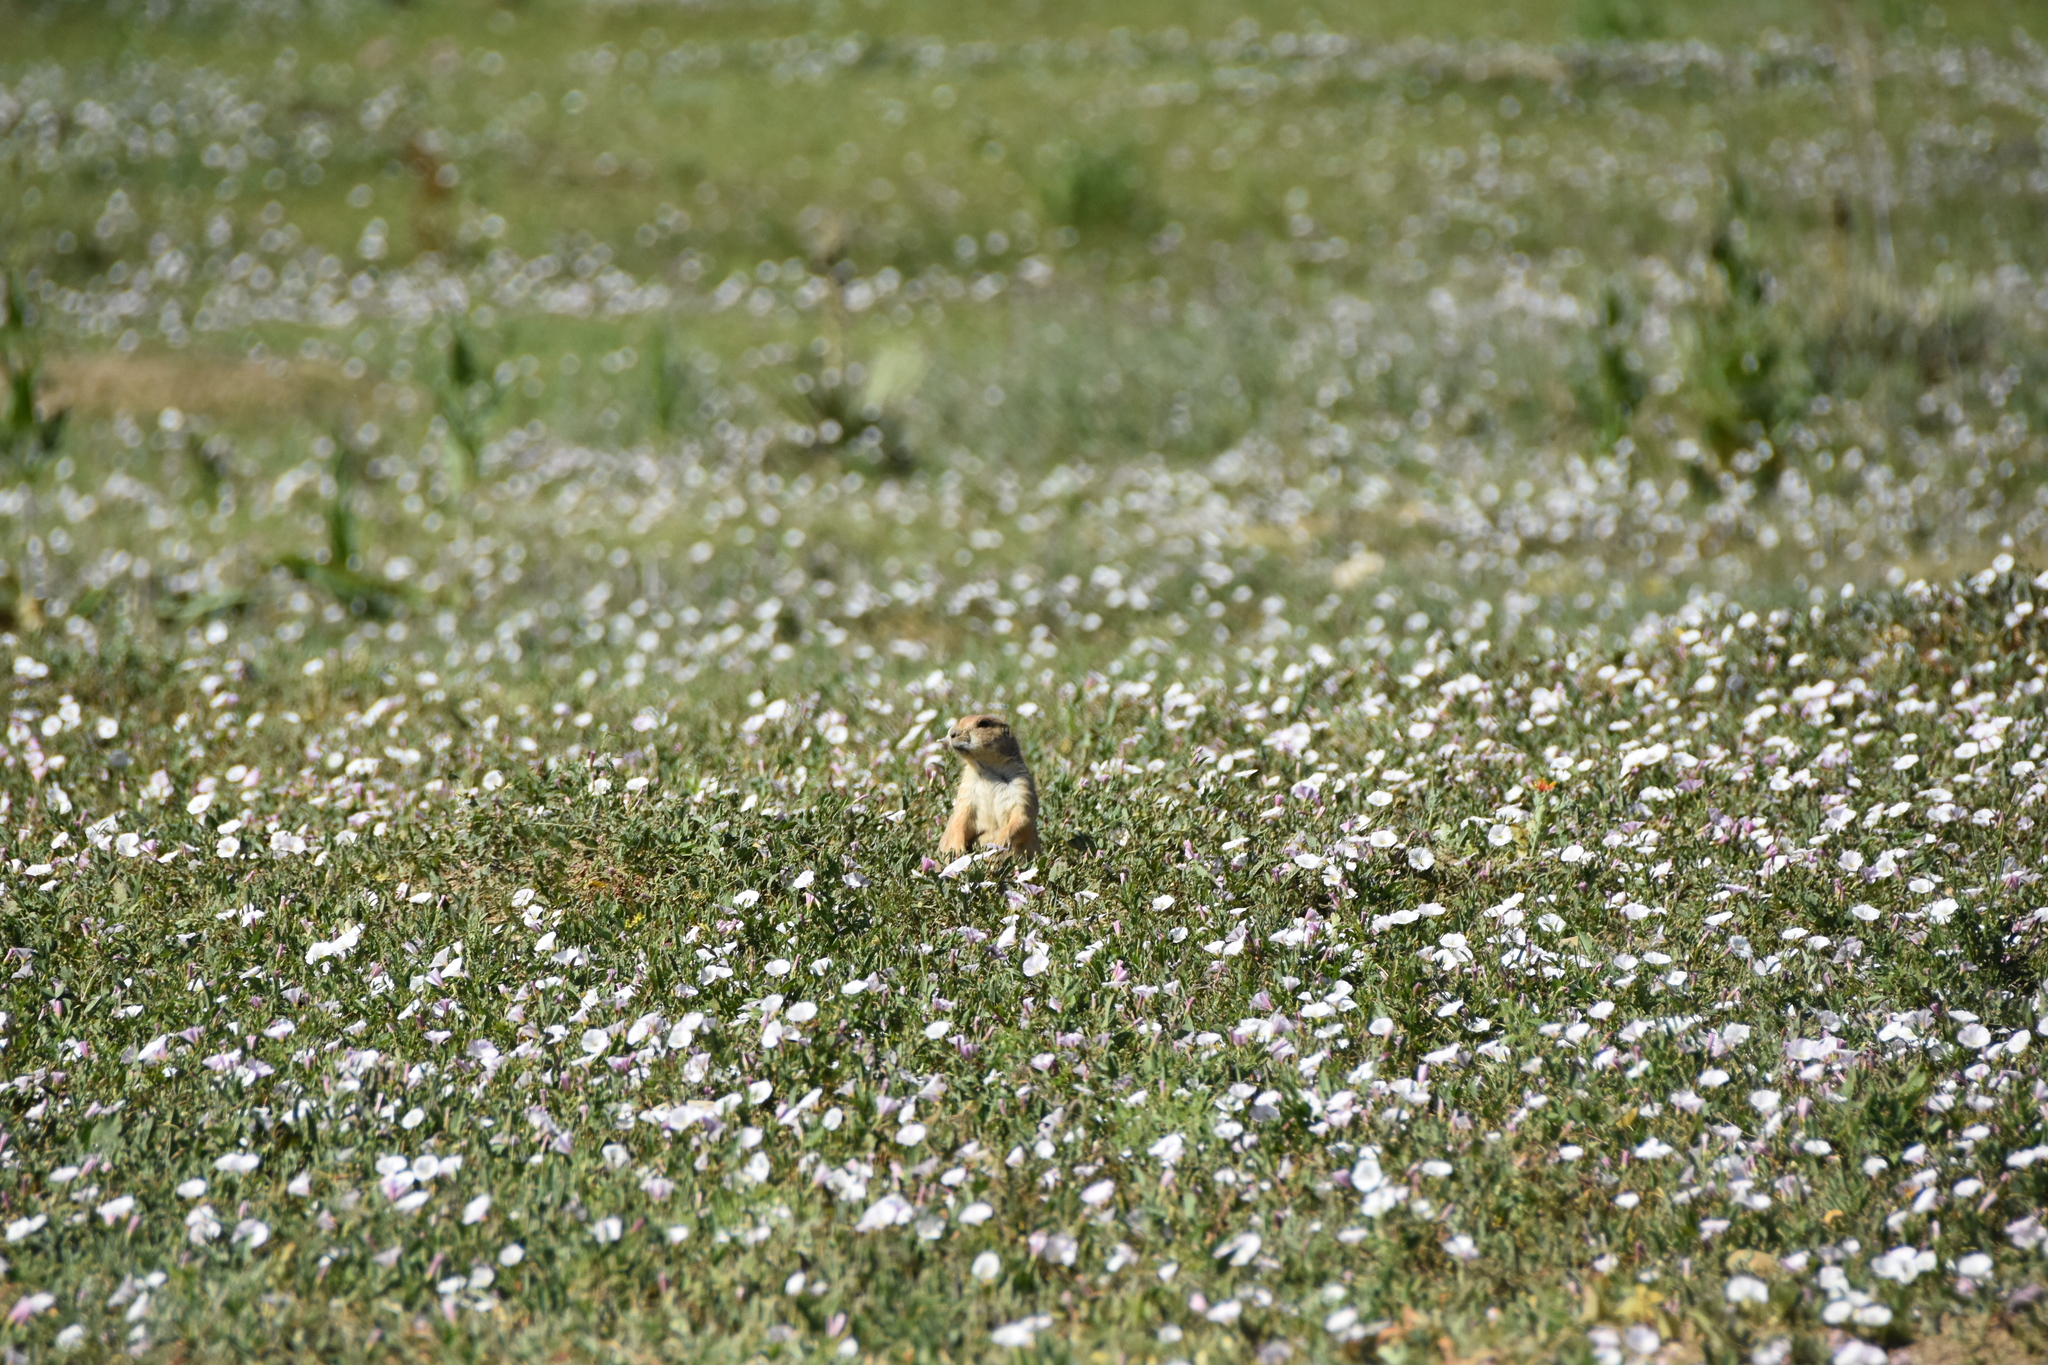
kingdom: Animalia
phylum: Chordata
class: Mammalia
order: Rodentia
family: Sciuridae
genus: Cynomys
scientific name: Cynomys ludovicianus
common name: Black-tailed prairie dog
